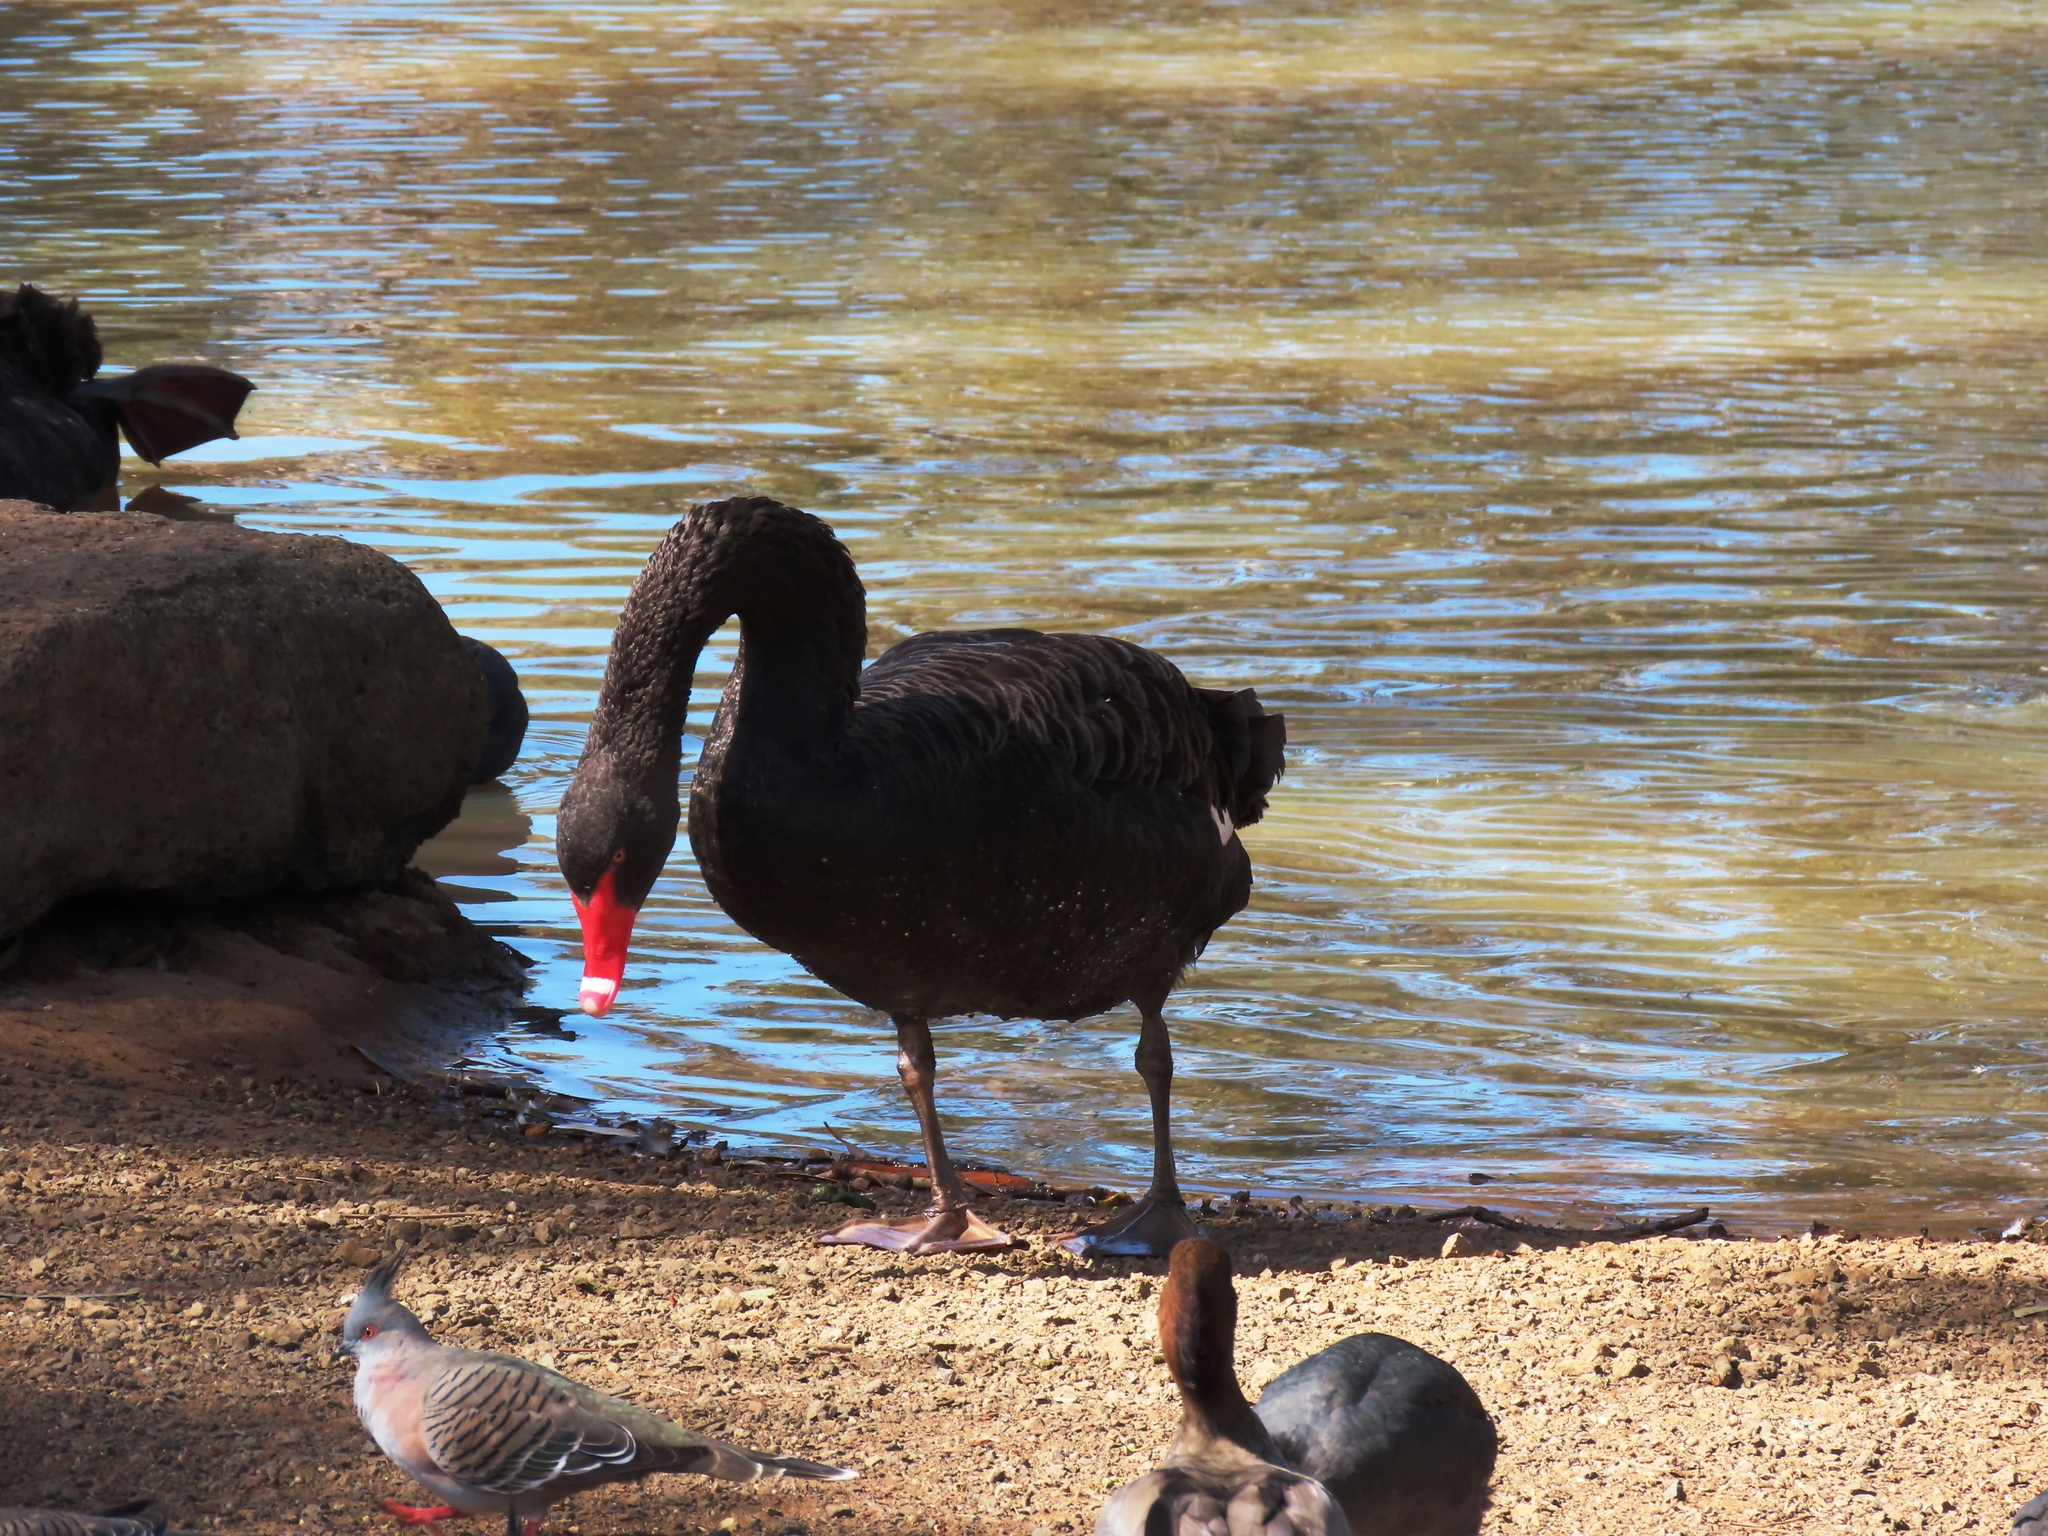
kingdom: Animalia
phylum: Chordata
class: Aves
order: Anseriformes
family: Anatidae
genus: Cygnus
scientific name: Cygnus atratus
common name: Black swan
